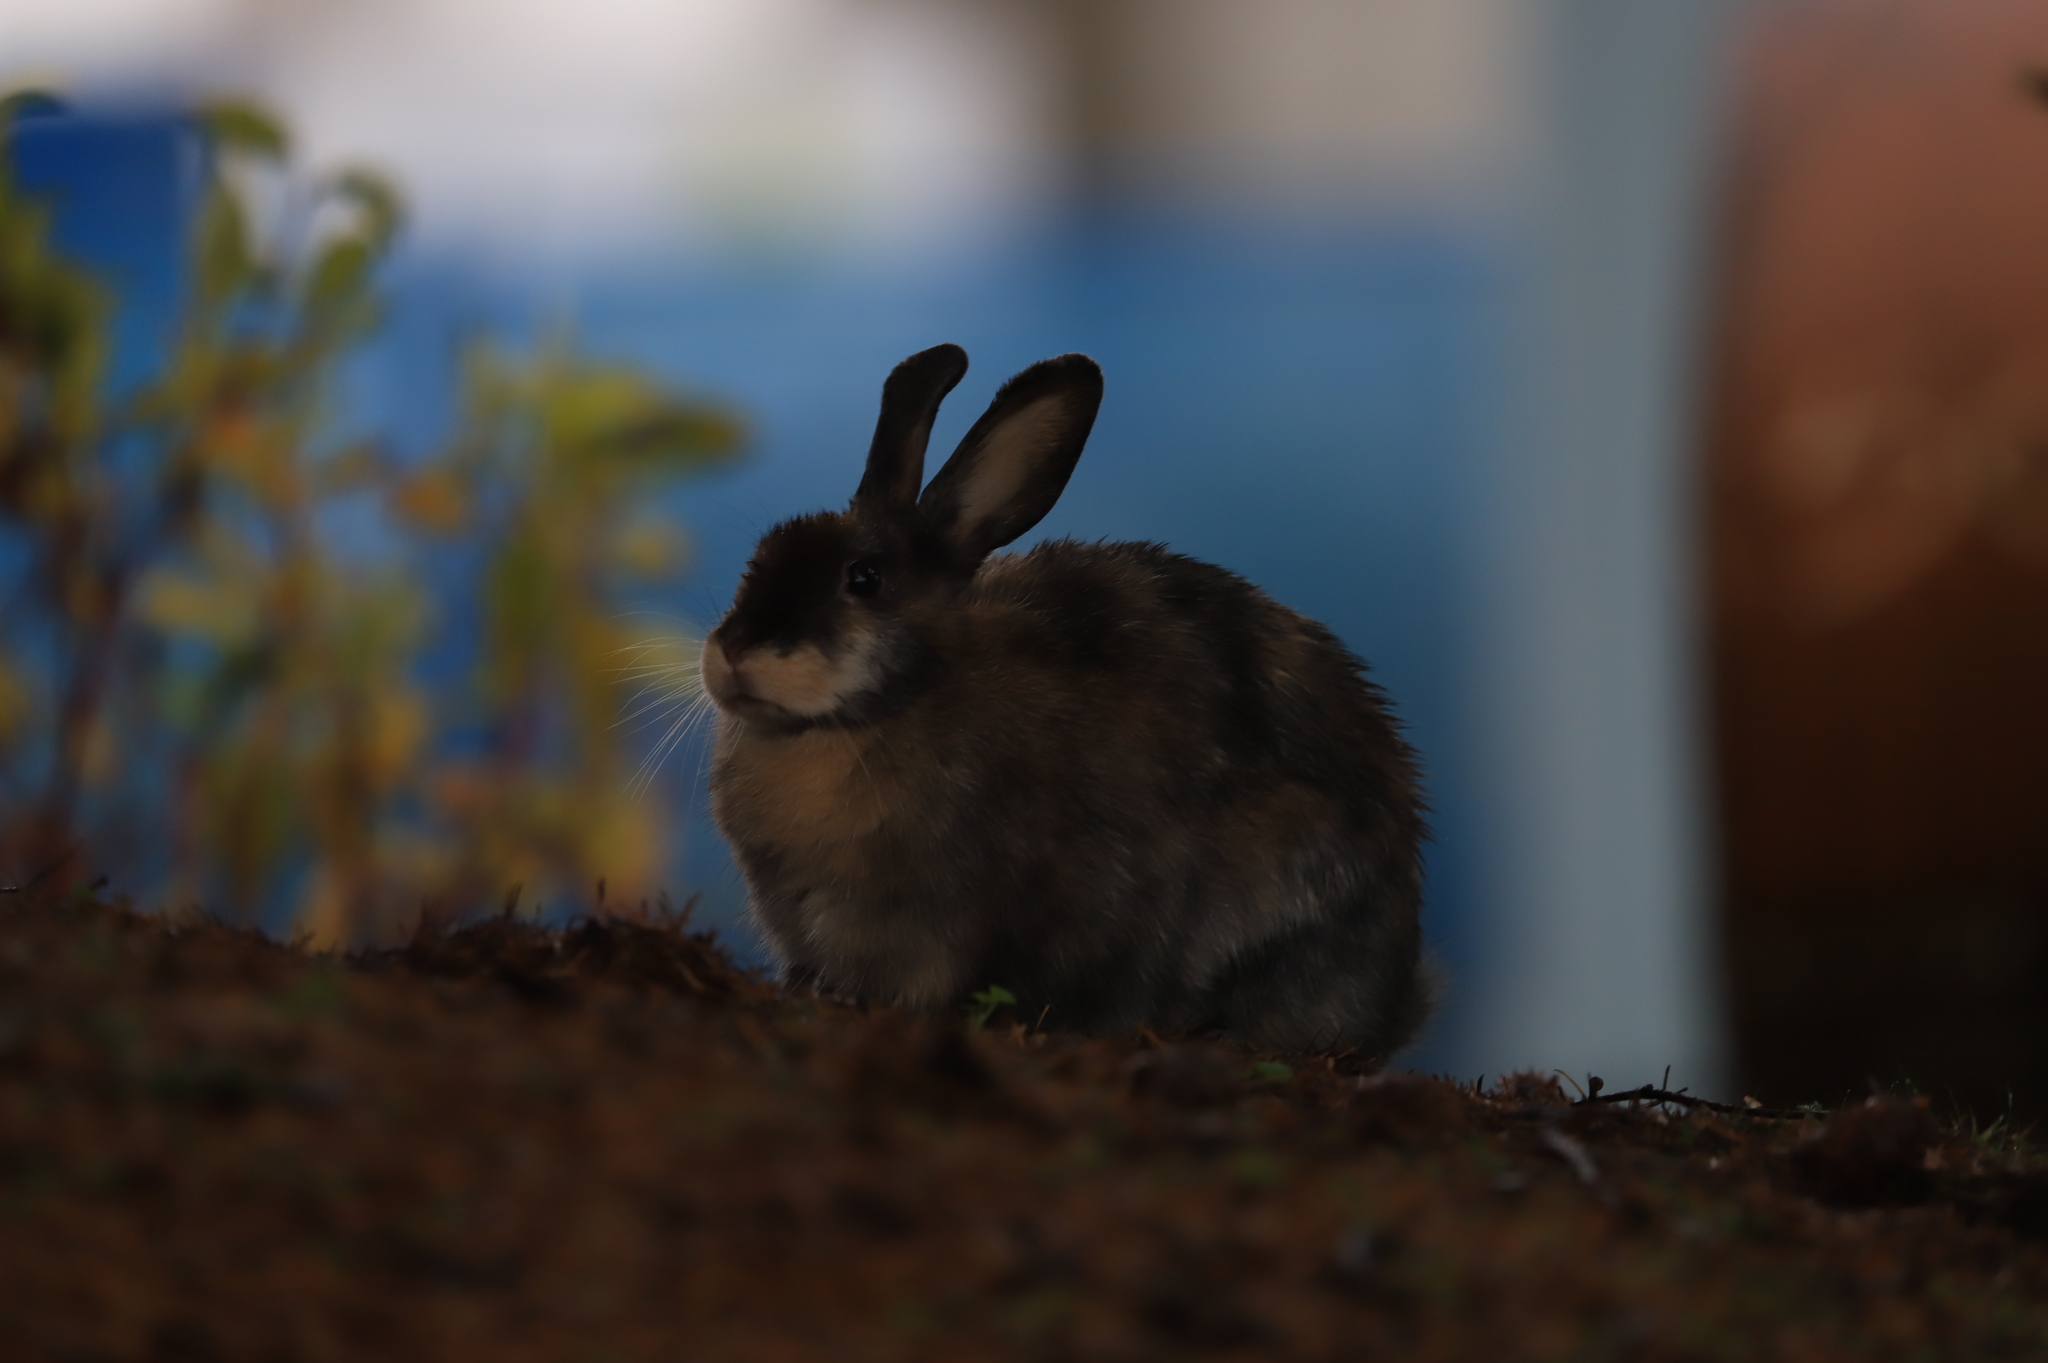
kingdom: Animalia
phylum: Chordata
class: Mammalia
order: Lagomorpha
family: Leporidae
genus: Oryctolagus
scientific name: Oryctolagus cuniculus
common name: European rabbit
